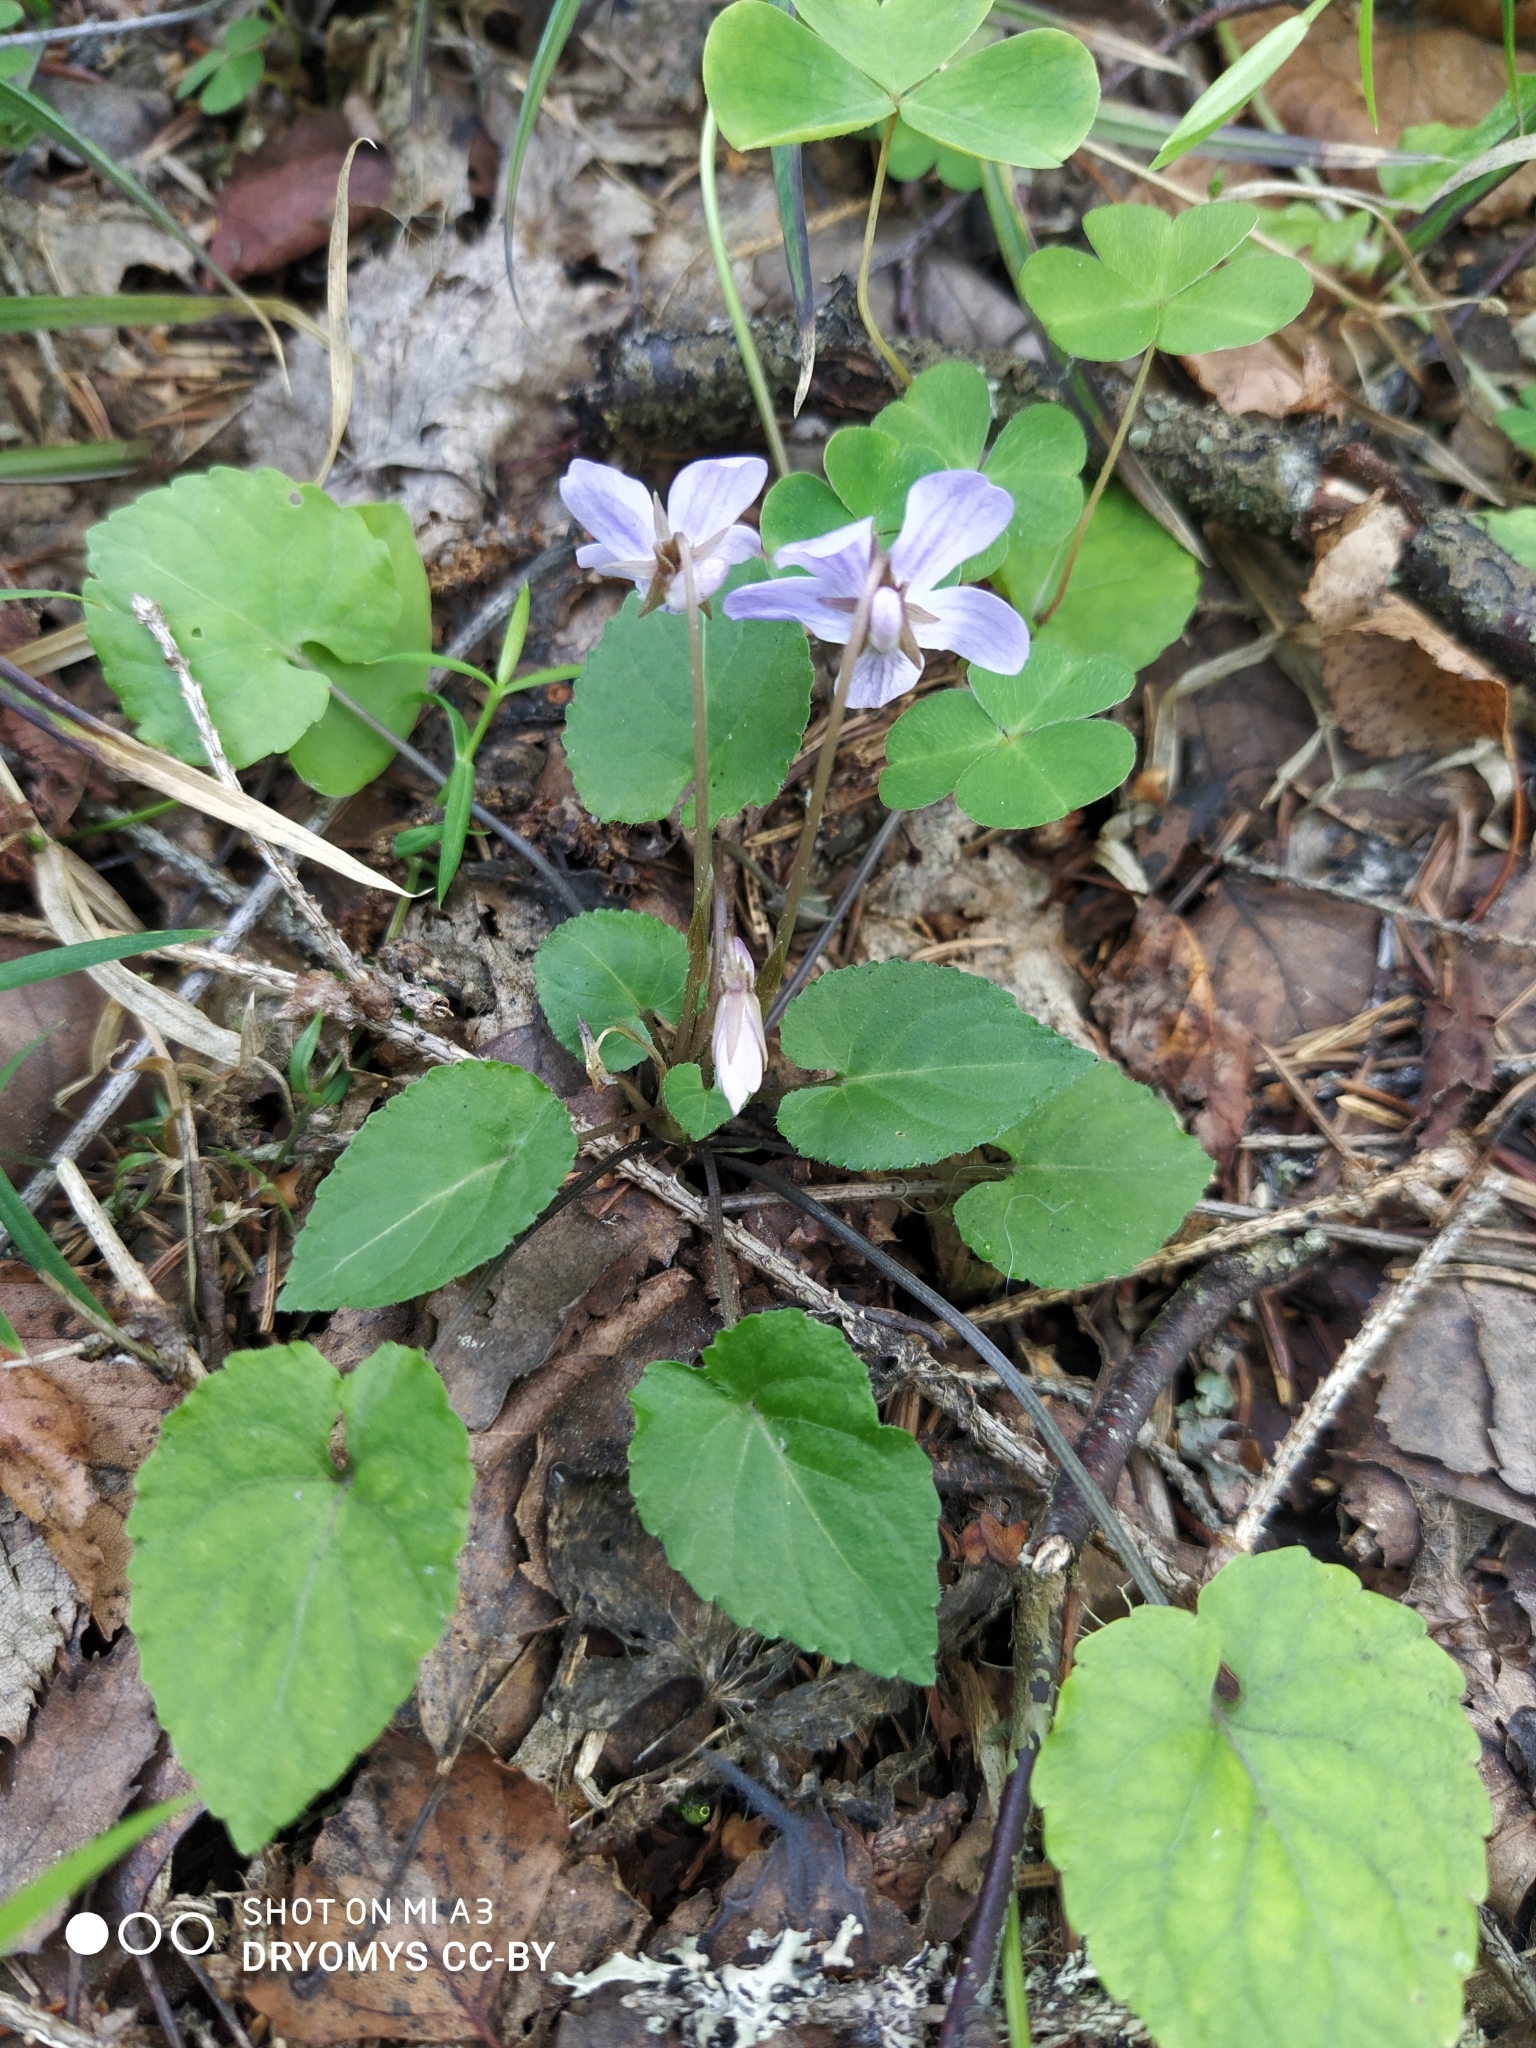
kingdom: Plantae
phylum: Tracheophyta
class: Magnoliopsida
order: Malpighiales
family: Violaceae
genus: Viola
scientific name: Viola selkirkii
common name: Selkirk's violet
